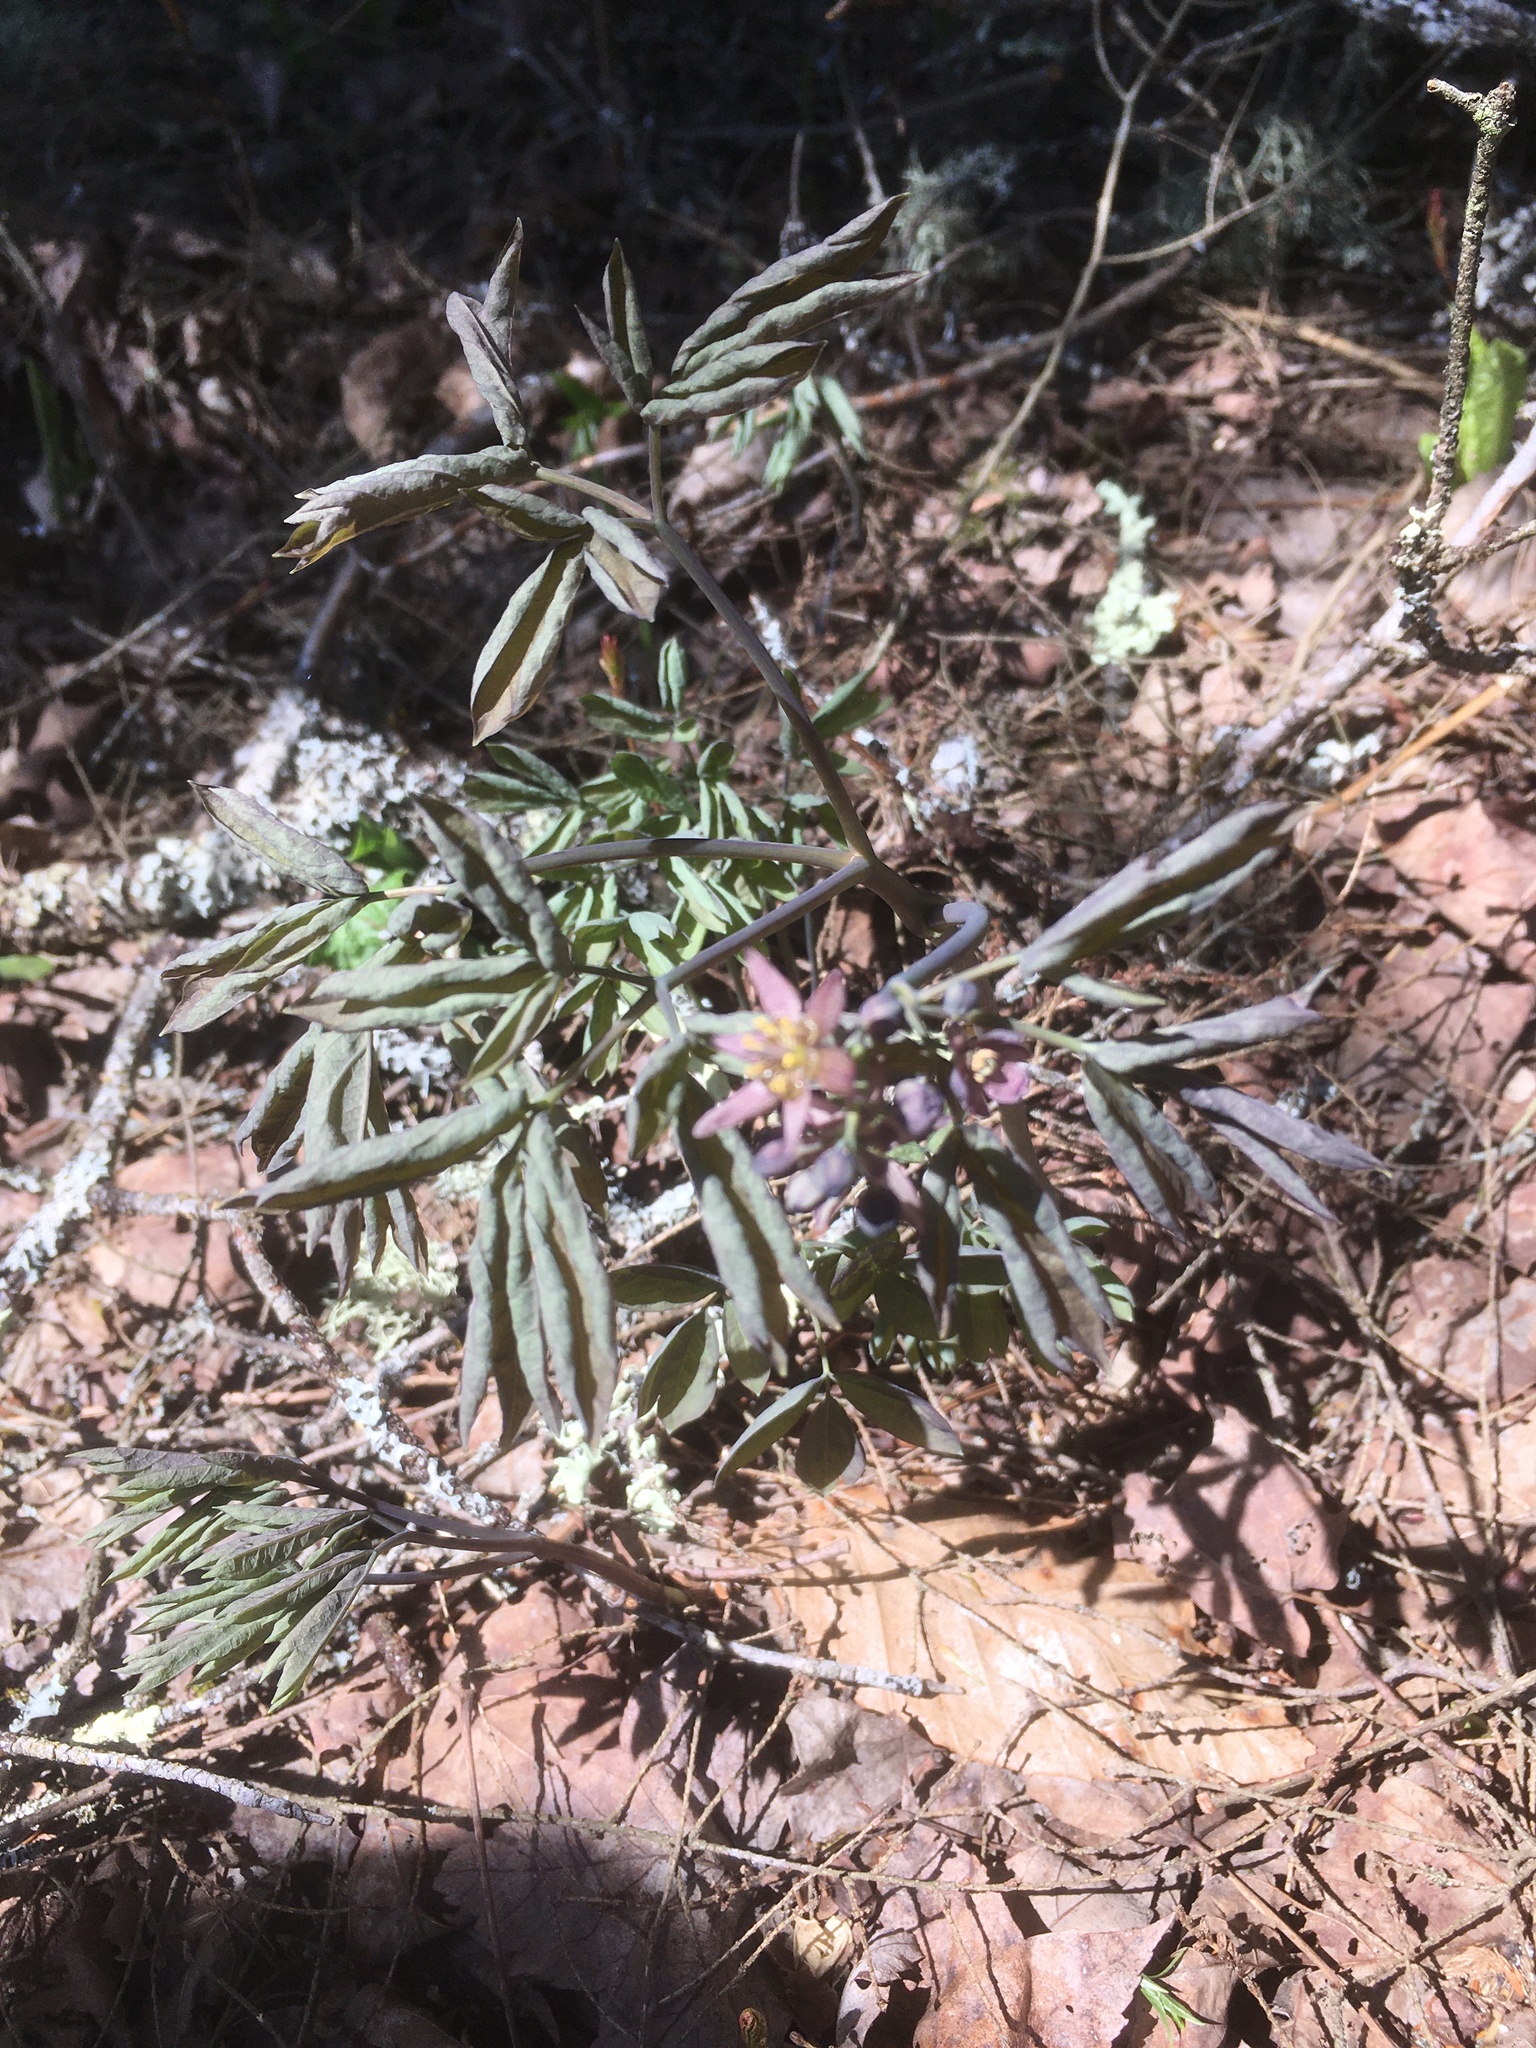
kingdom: Plantae
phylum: Tracheophyta
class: Magnoliopsida
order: Ranunculales
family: Berberidaceae
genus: Caulophyllum
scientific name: Caulophyllum giganteum
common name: Blue cohosh
